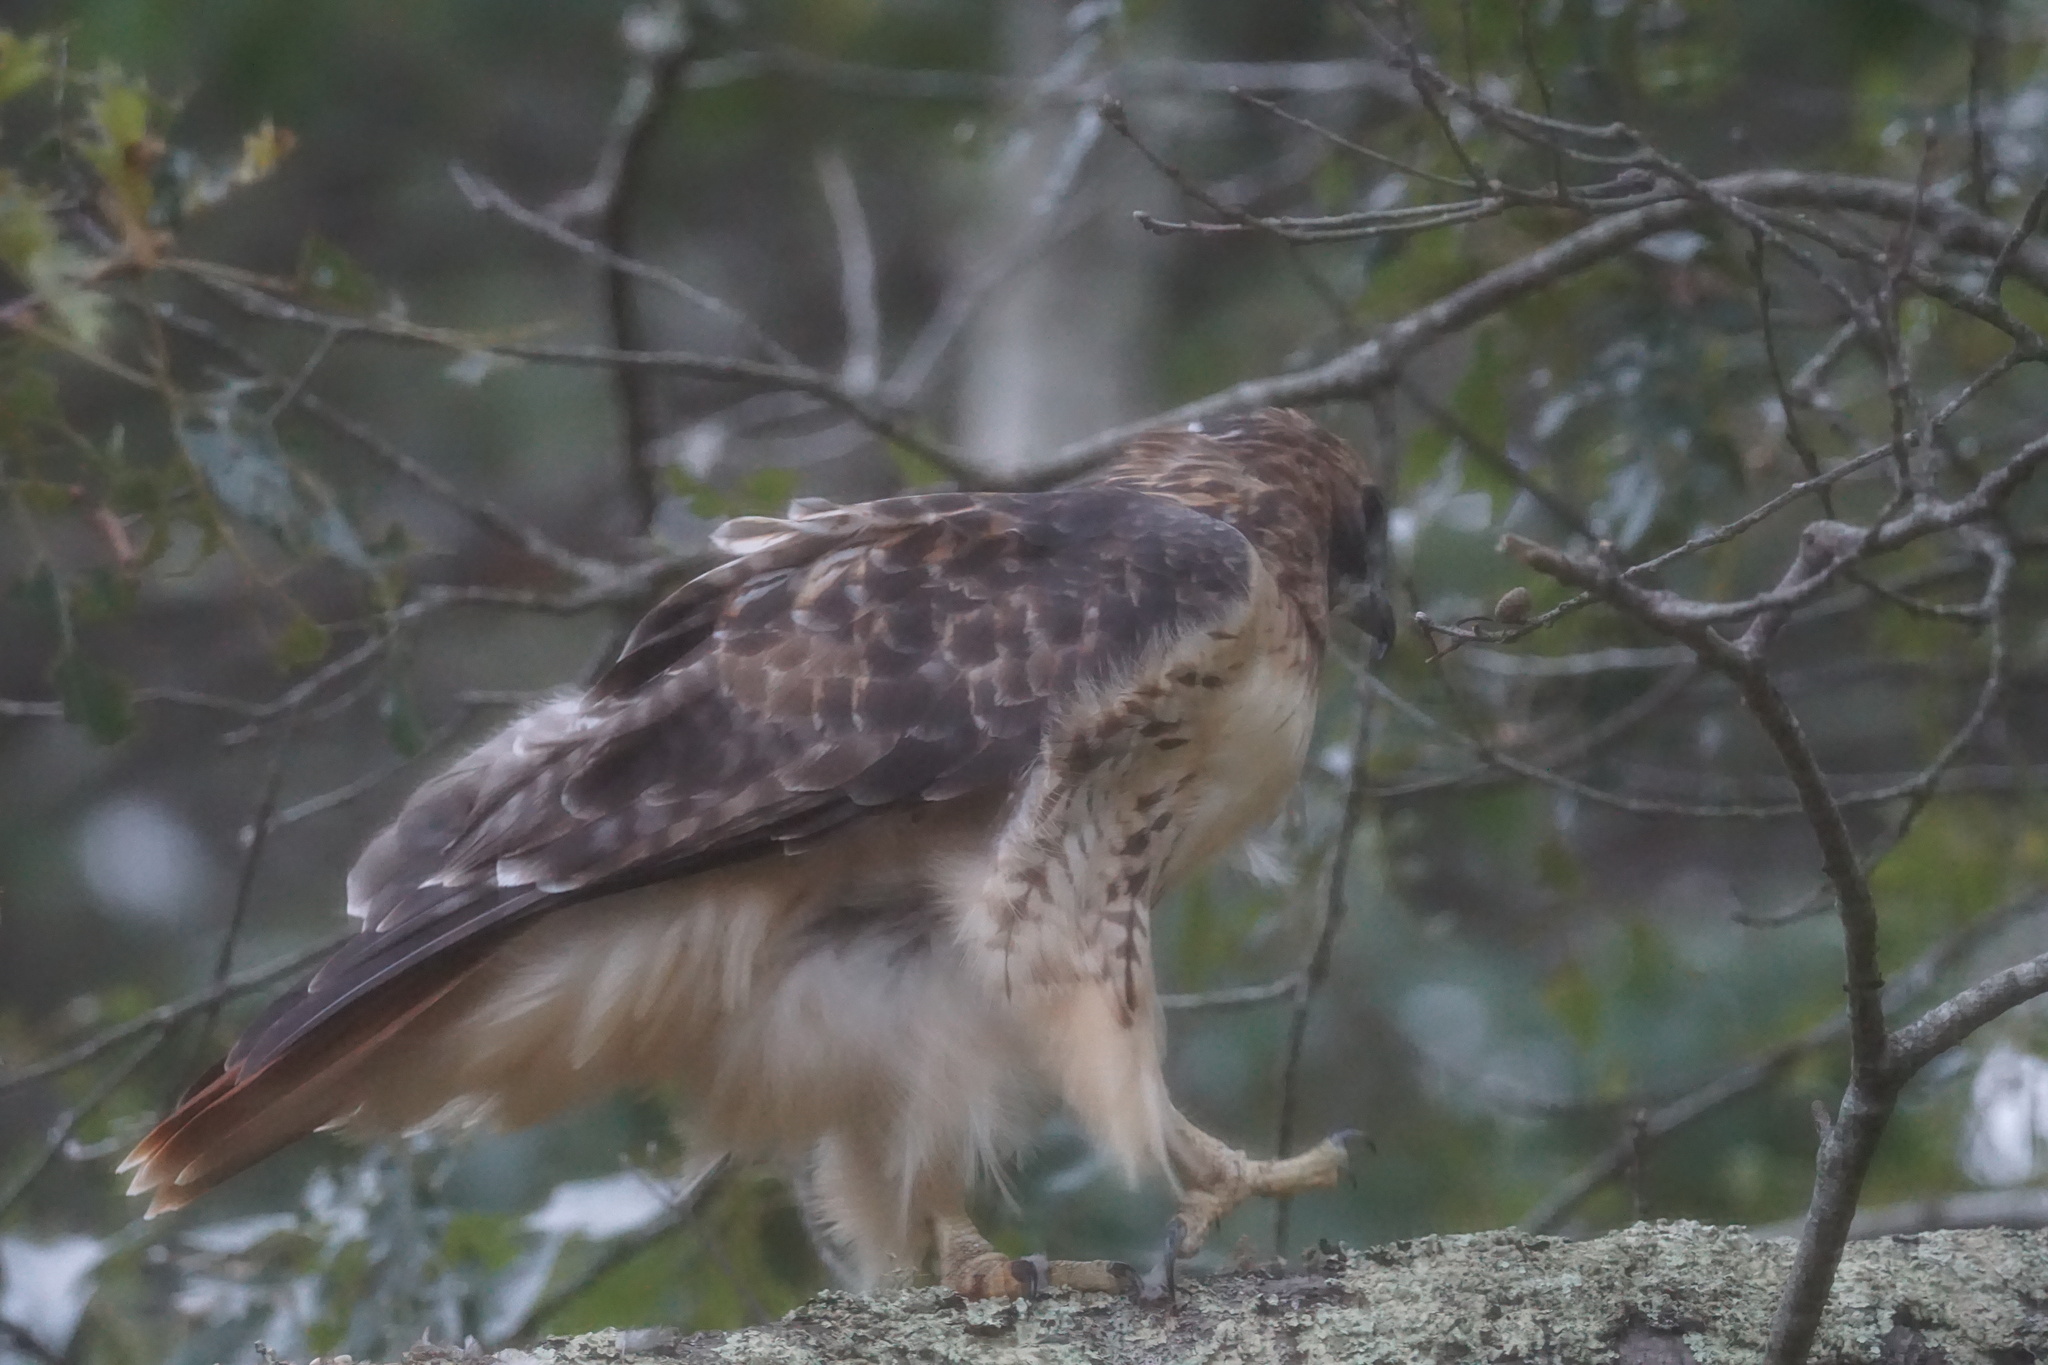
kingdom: Animalia
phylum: Chordata
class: Aves
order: Accipitriformes
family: Accipitridae
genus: Buteo
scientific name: Buteo jamaicensis
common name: Red-tailed hawk
